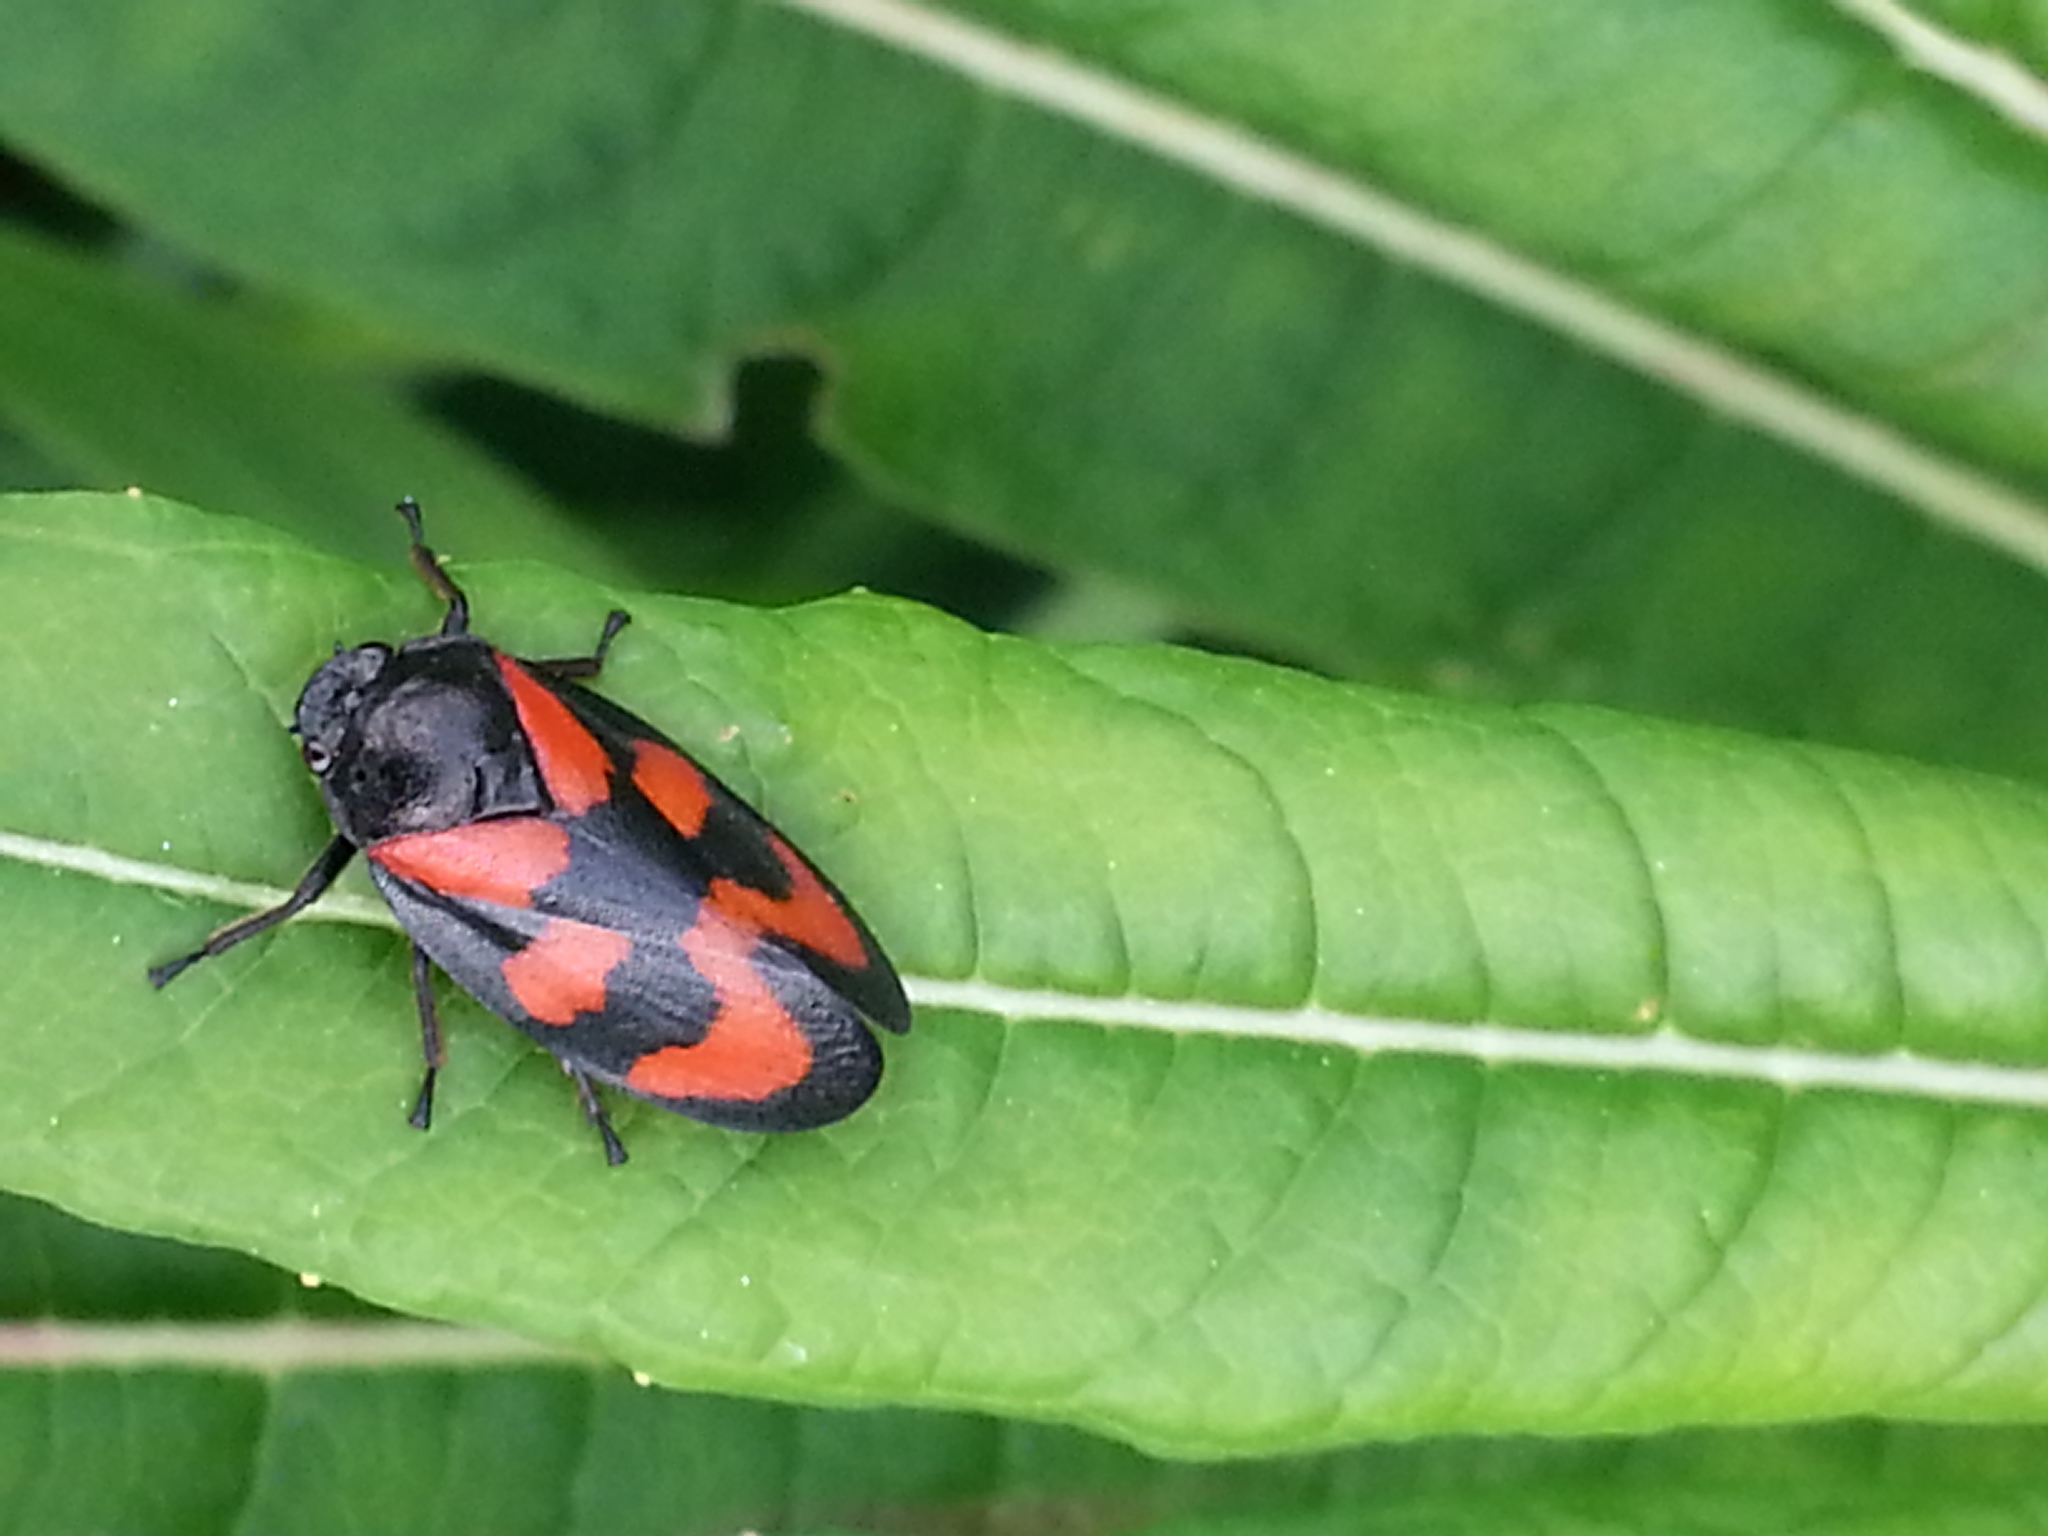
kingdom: Animalia
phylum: Arthropoda
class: Insecta
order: Hemiptera
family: Cercopidae
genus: Cercopis
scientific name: Cercopis vulnerata
